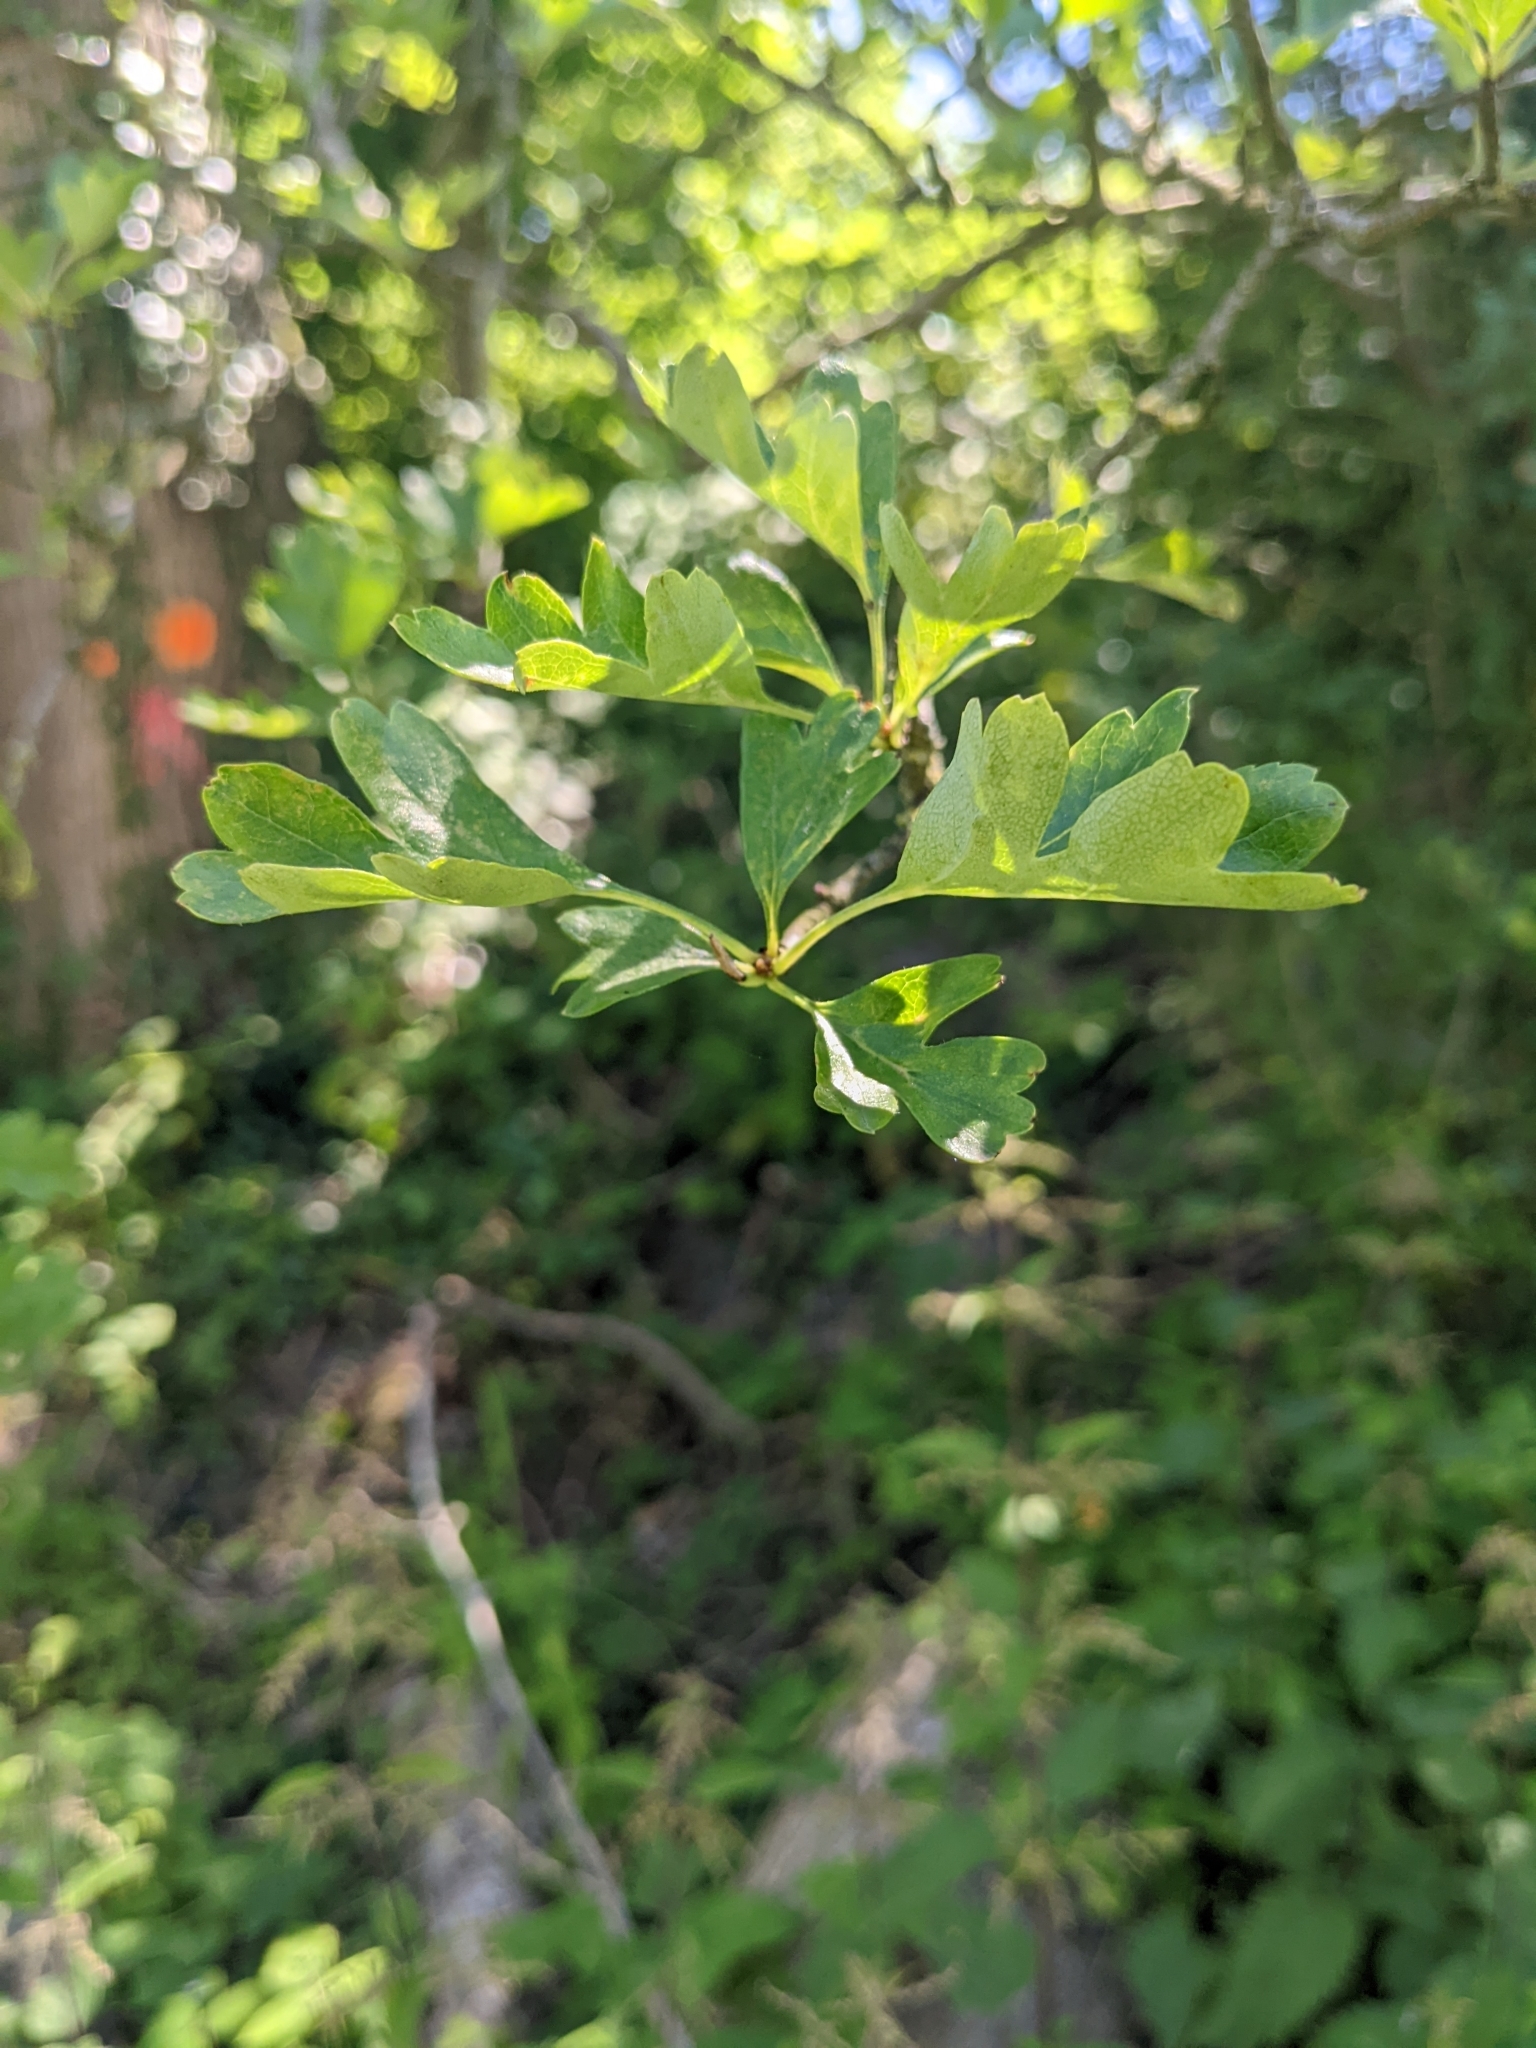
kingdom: Plantae
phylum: Tracheophyta
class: Magnoliopsida
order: Rosales
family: Rosaceae
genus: Crataegus
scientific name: Crataegus monogyna
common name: Hawthorn
